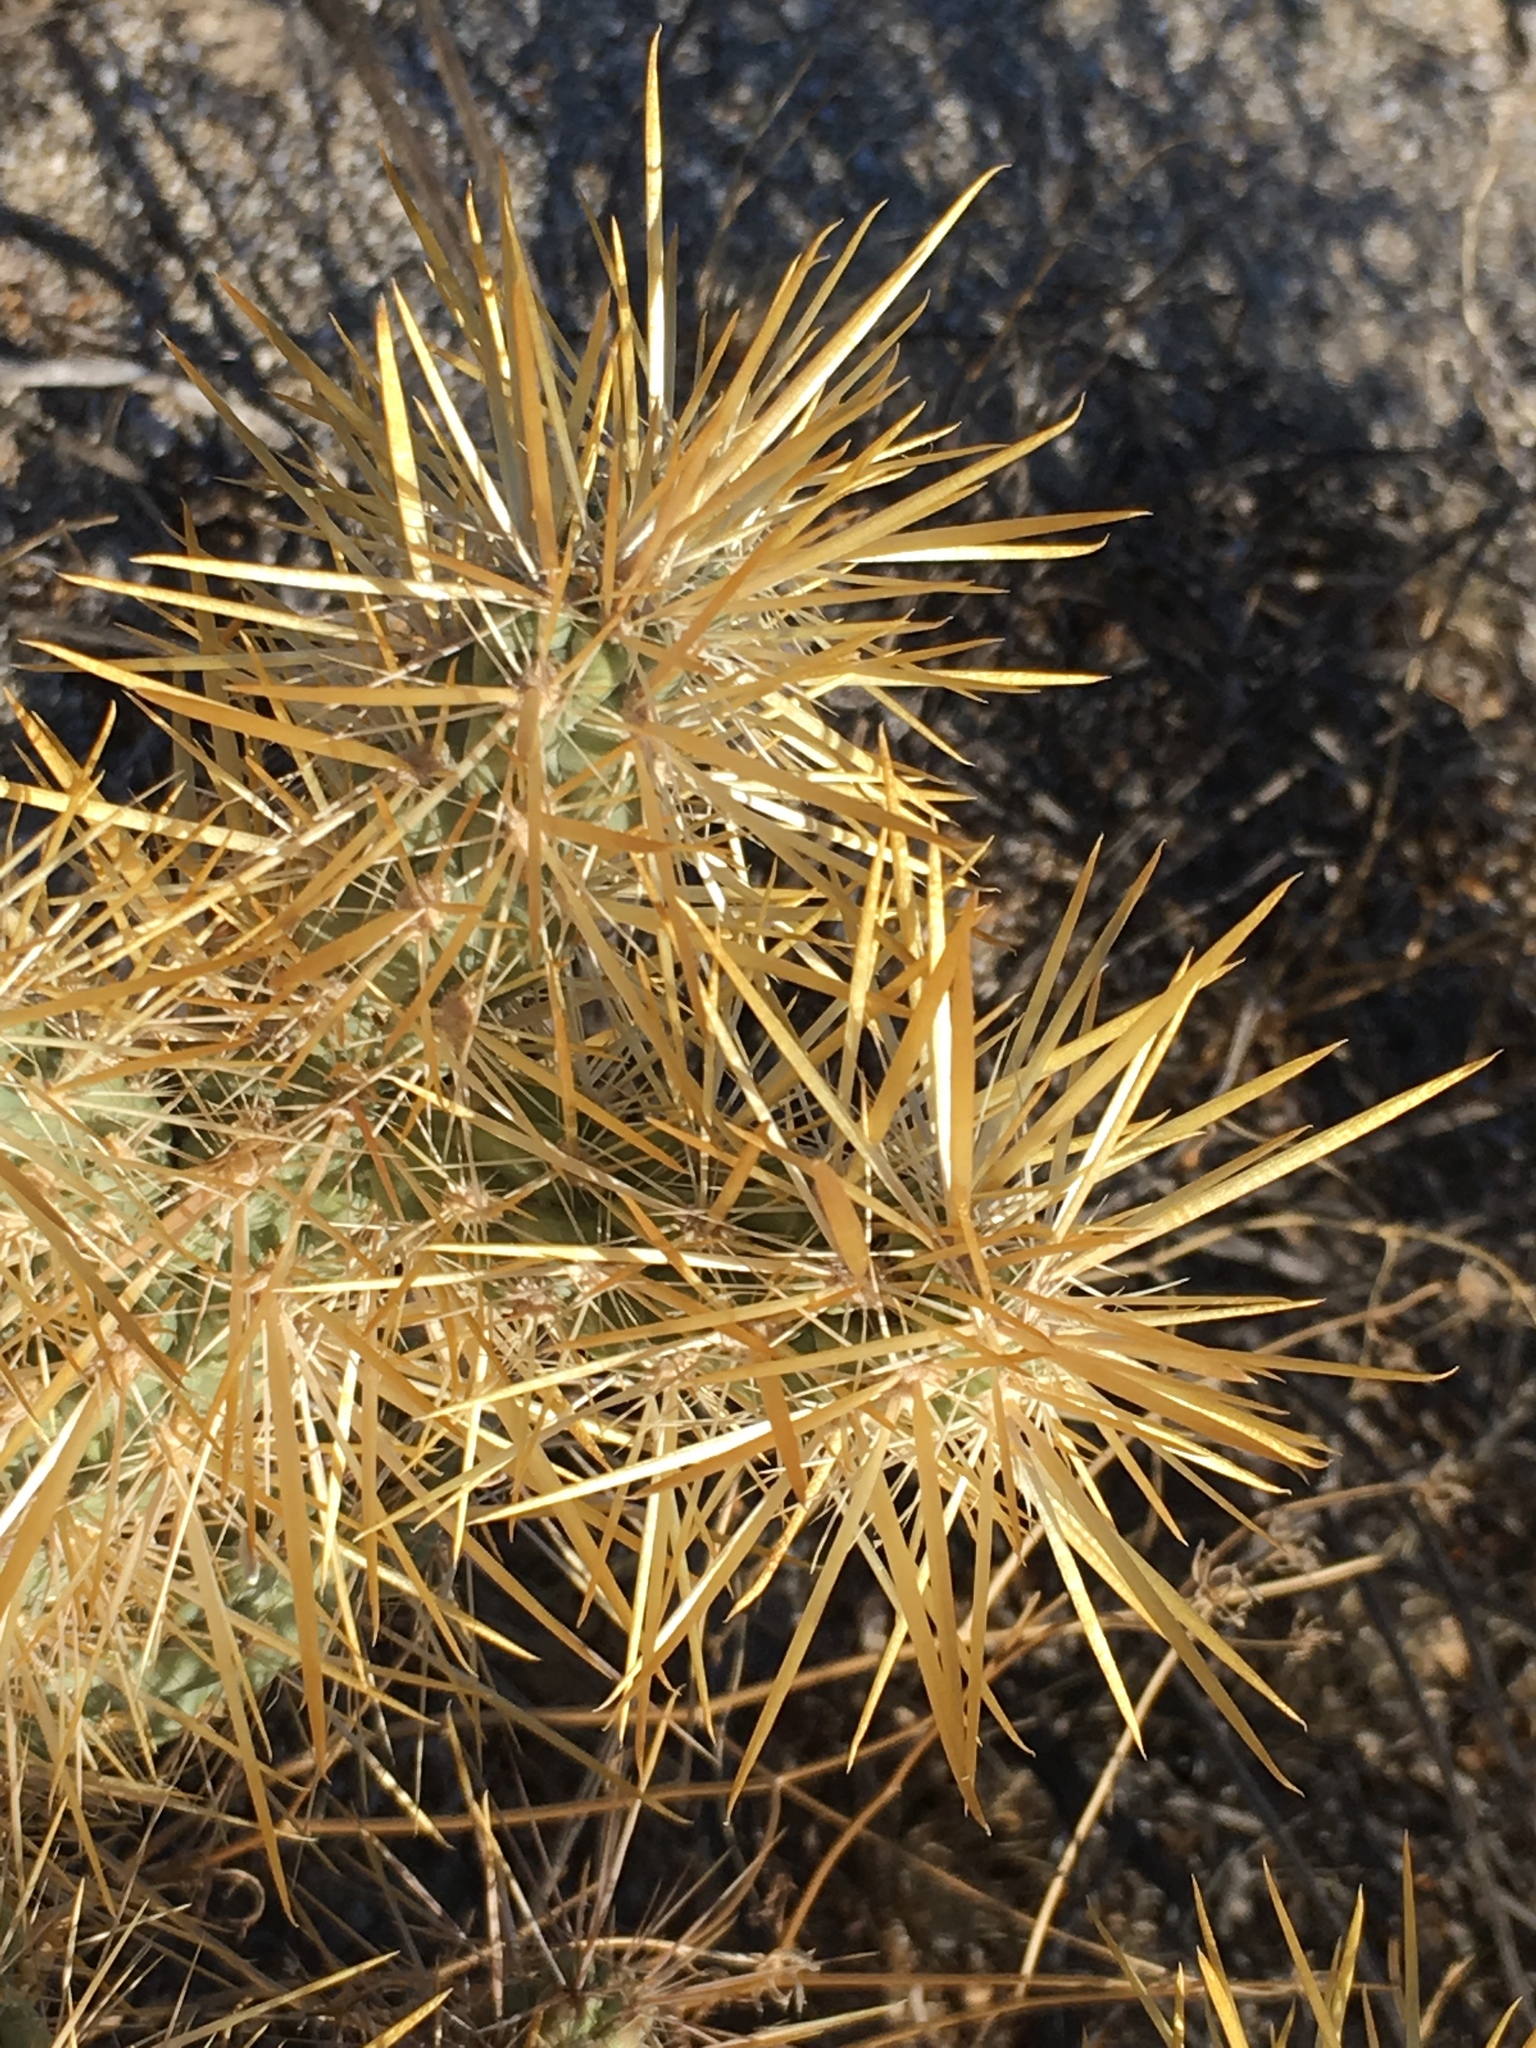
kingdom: Plantae
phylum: Tracheophyta
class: Magnoliopsida
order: Caryophyllales
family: Cactaceae
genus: Cylindropuntia
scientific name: Cylindropuntia echinocarpa
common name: Ground cholla
